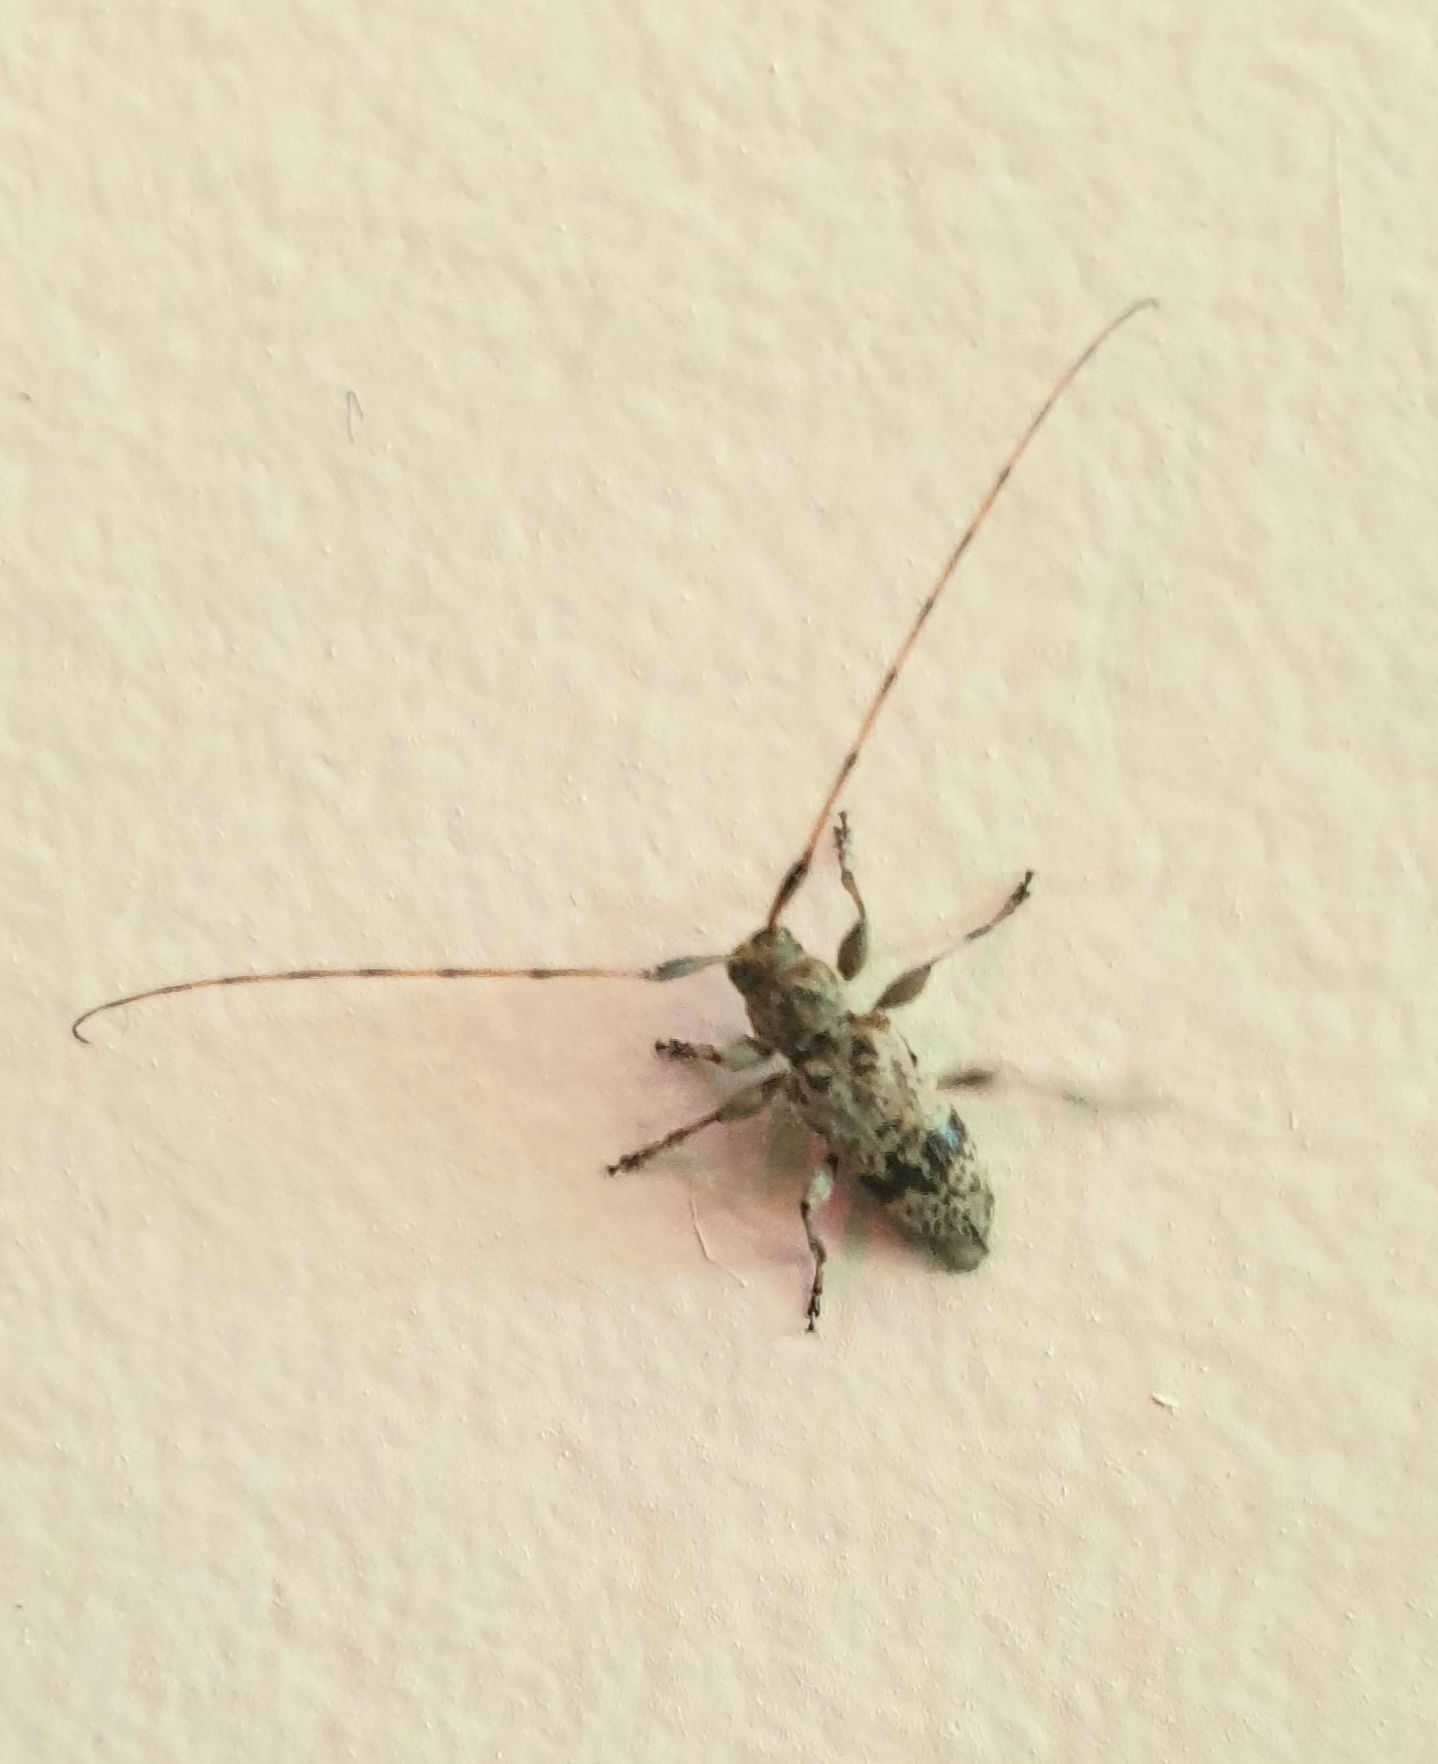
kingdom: Animalia
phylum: Arthropoda
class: Insecta
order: Coleoptera
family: Cerambycidae
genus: Leiopus
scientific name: Leiopus femoratus
